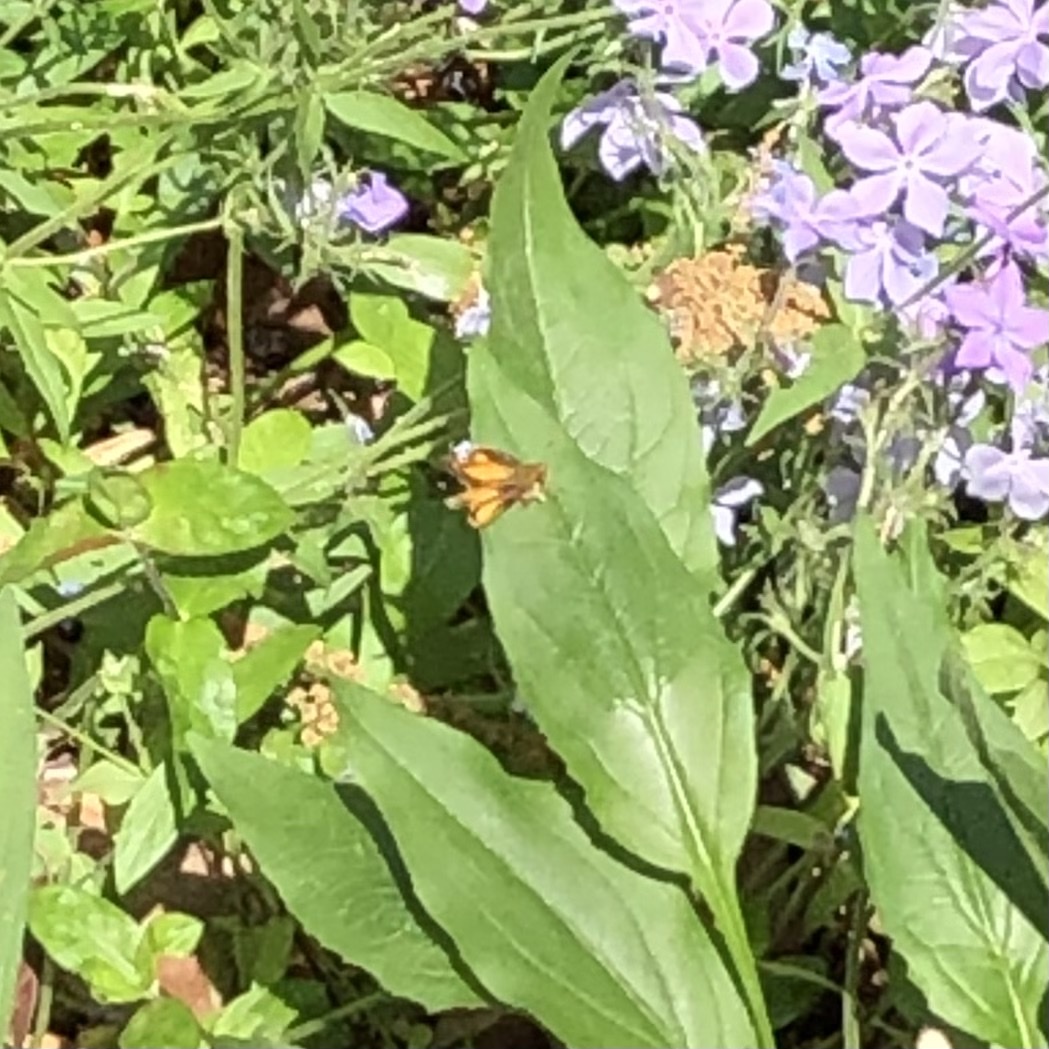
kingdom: Animalia
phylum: Arthropoda
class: Insecta
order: Lepidoptera
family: Hesperiidae
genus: Lon
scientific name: Lon zabulon
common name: Zabulon skipper
